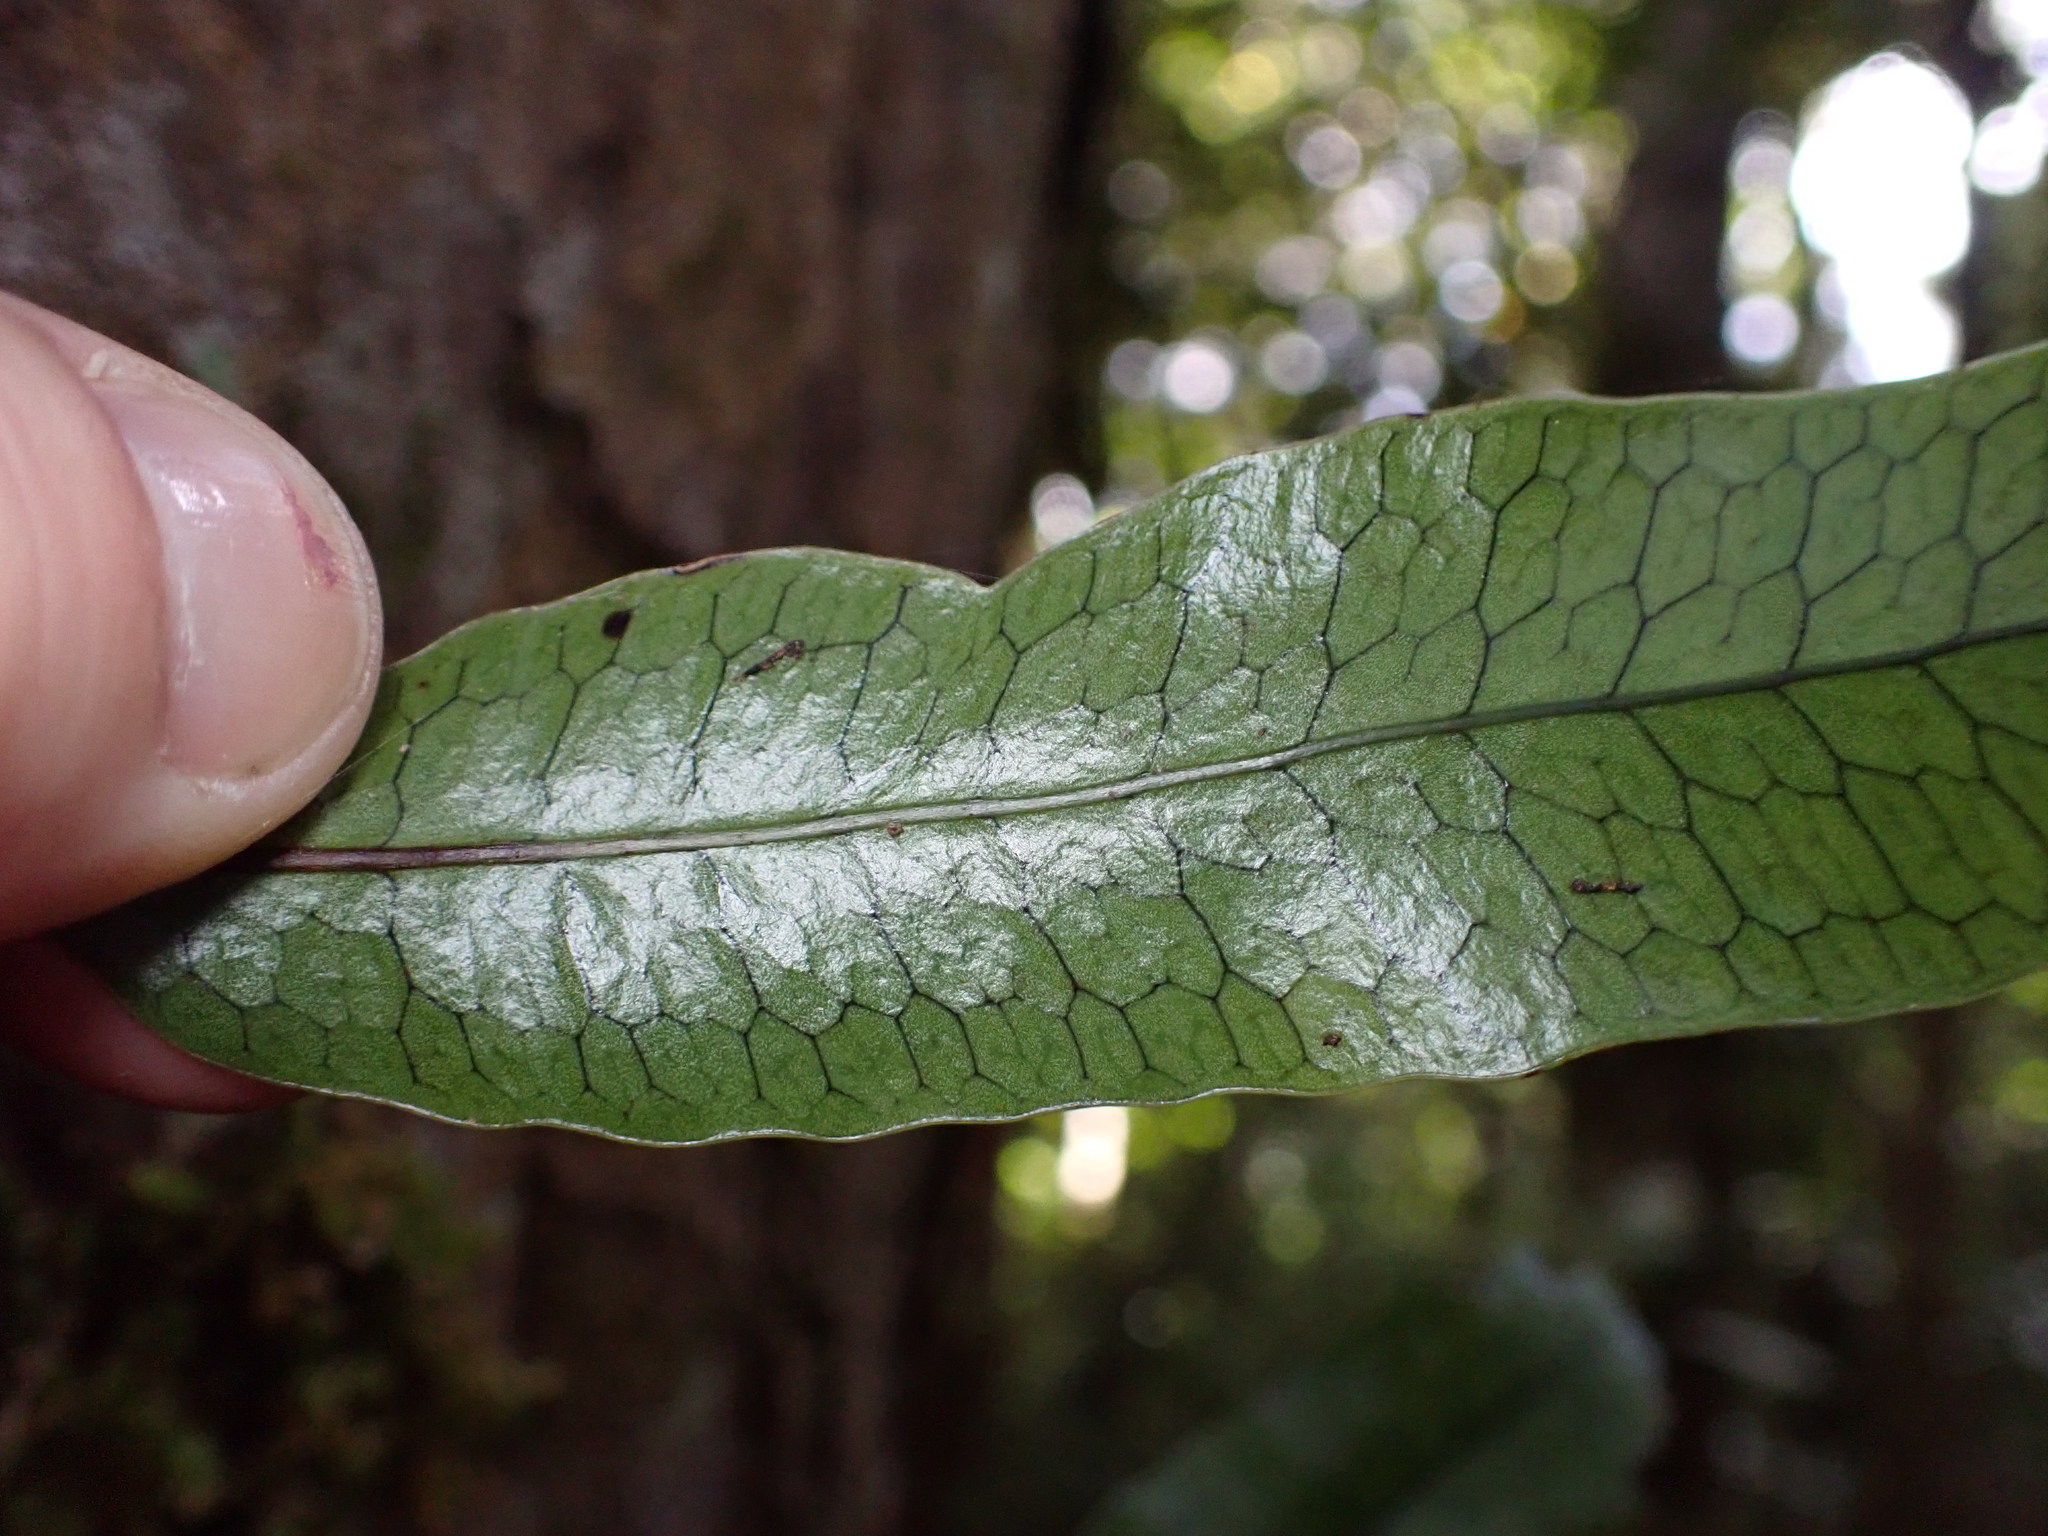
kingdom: Plantae
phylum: Tracheophyta
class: Polypodiopsida
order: Polypodiales
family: Polypodiaceae
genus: Lecanopteris
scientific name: Lecanopteris pustulata
